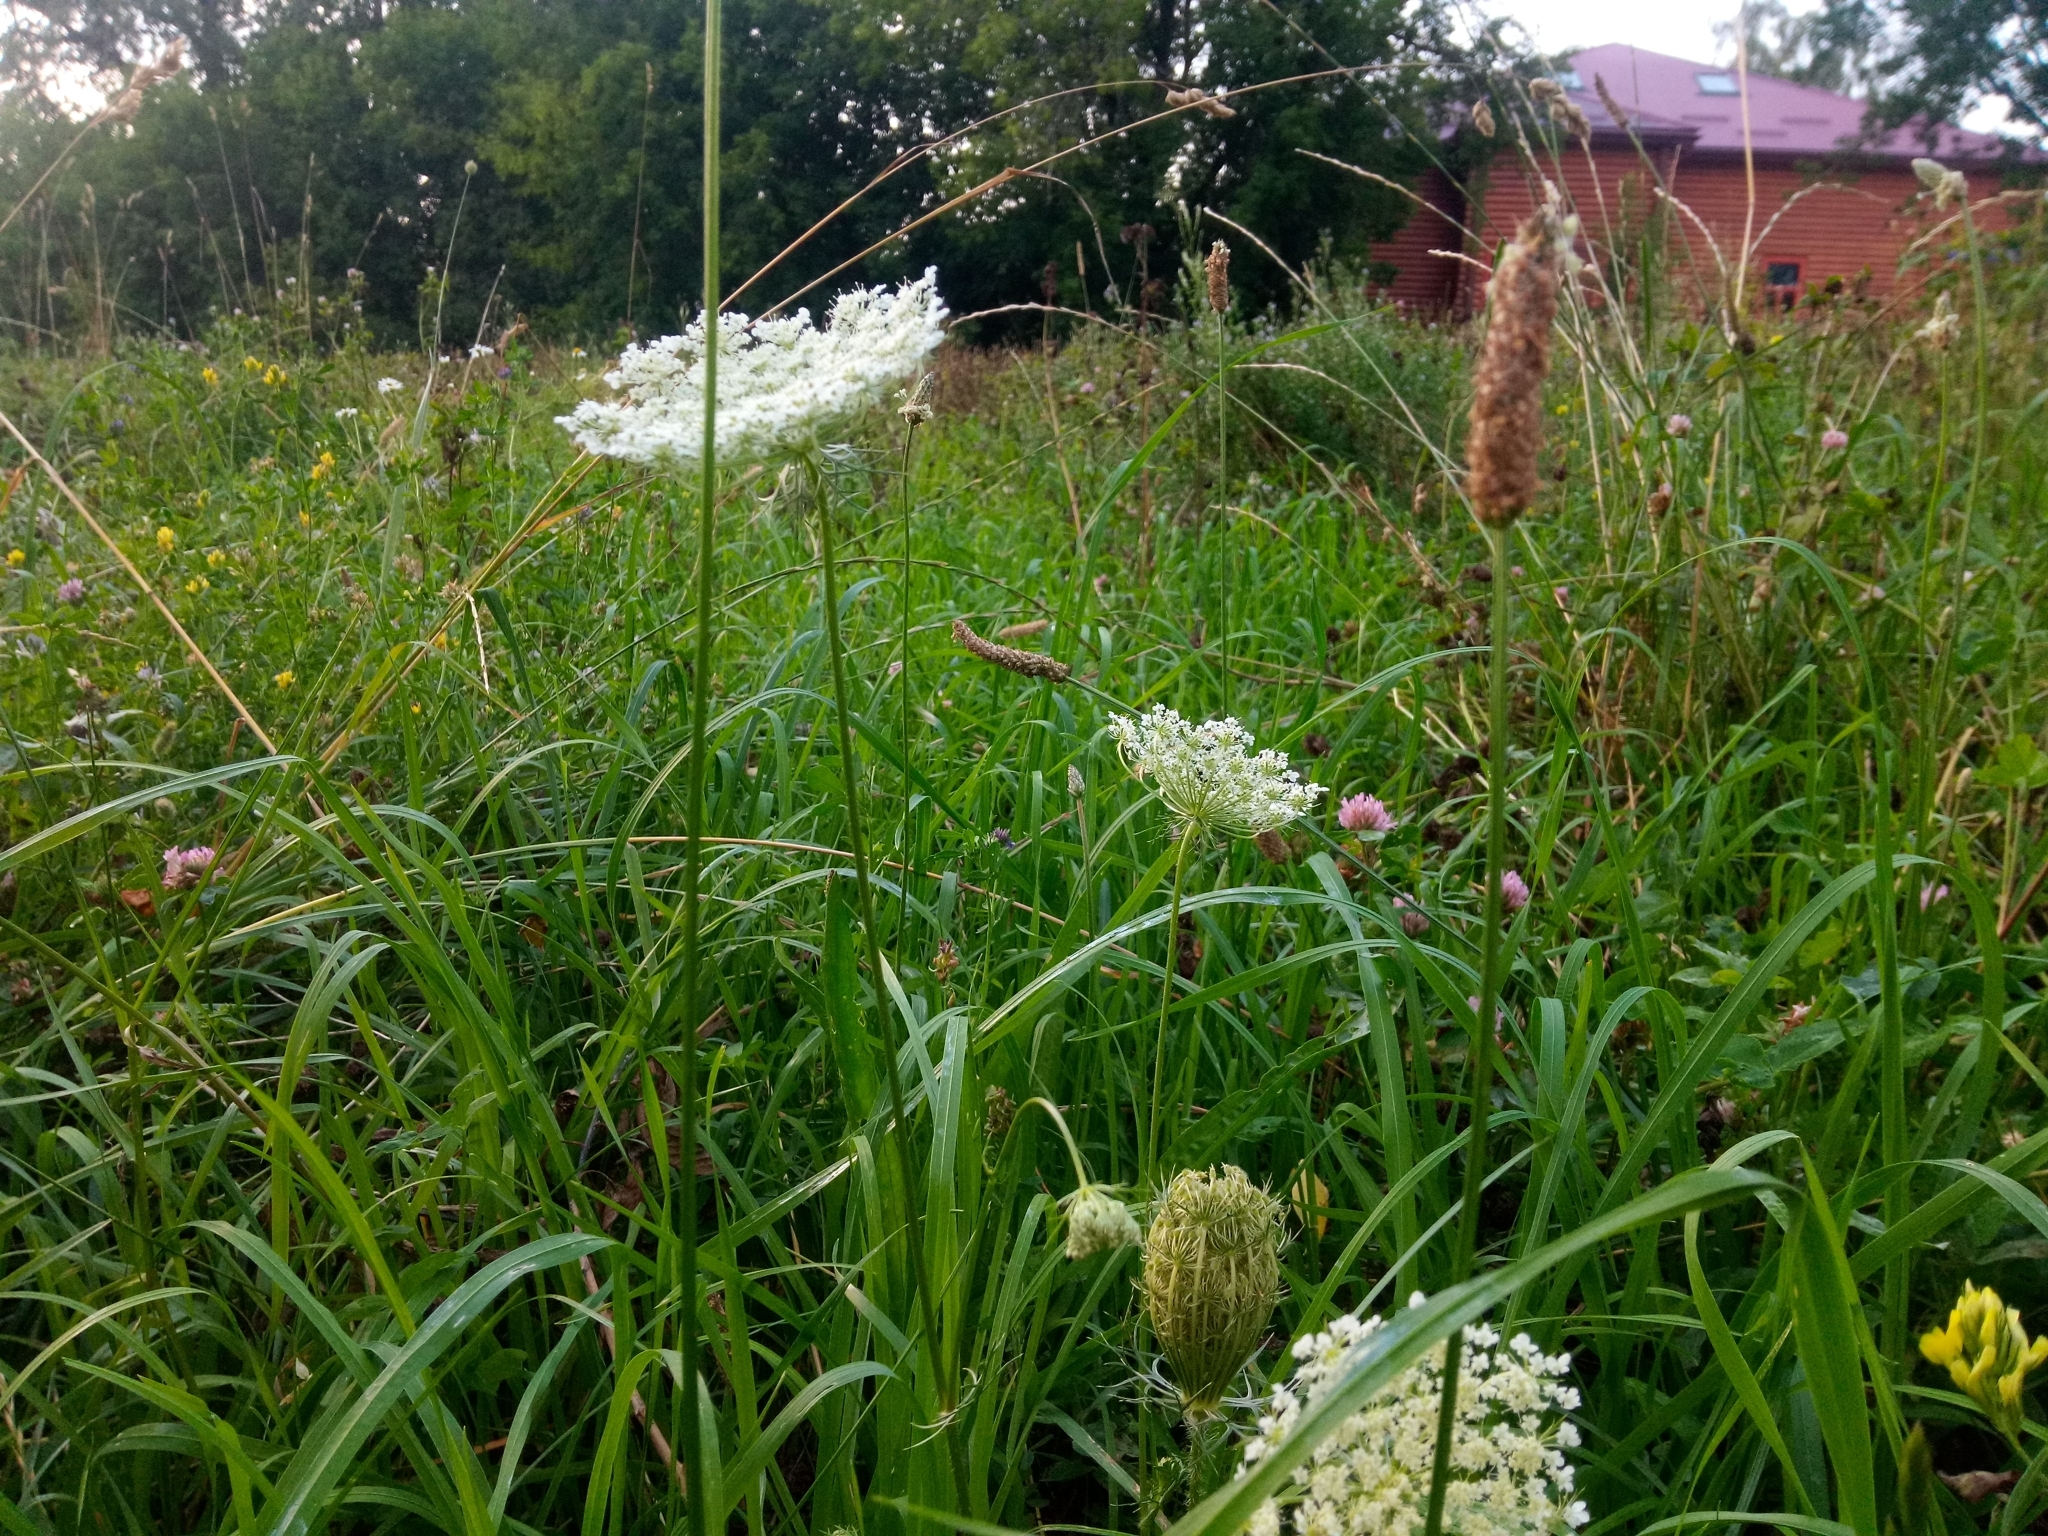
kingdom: Plantae
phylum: Tracheophyta
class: Magnoliopsida
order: Apiales
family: Apiaceae
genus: Daucus
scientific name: Daucus carota
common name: Wild carrot
